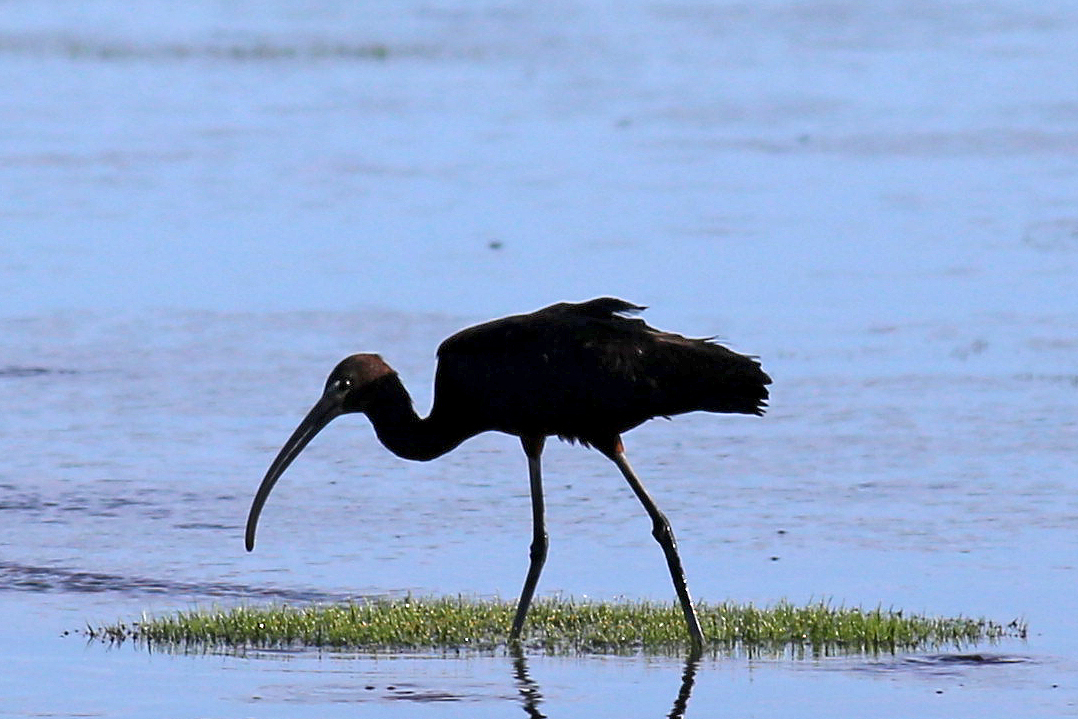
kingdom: Animalia
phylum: Chordata
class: Aves
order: Pelecaniformes
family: Threskiornithidae
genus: Plegadis
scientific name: Plegadis falcinellus
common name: Glossy ibis
